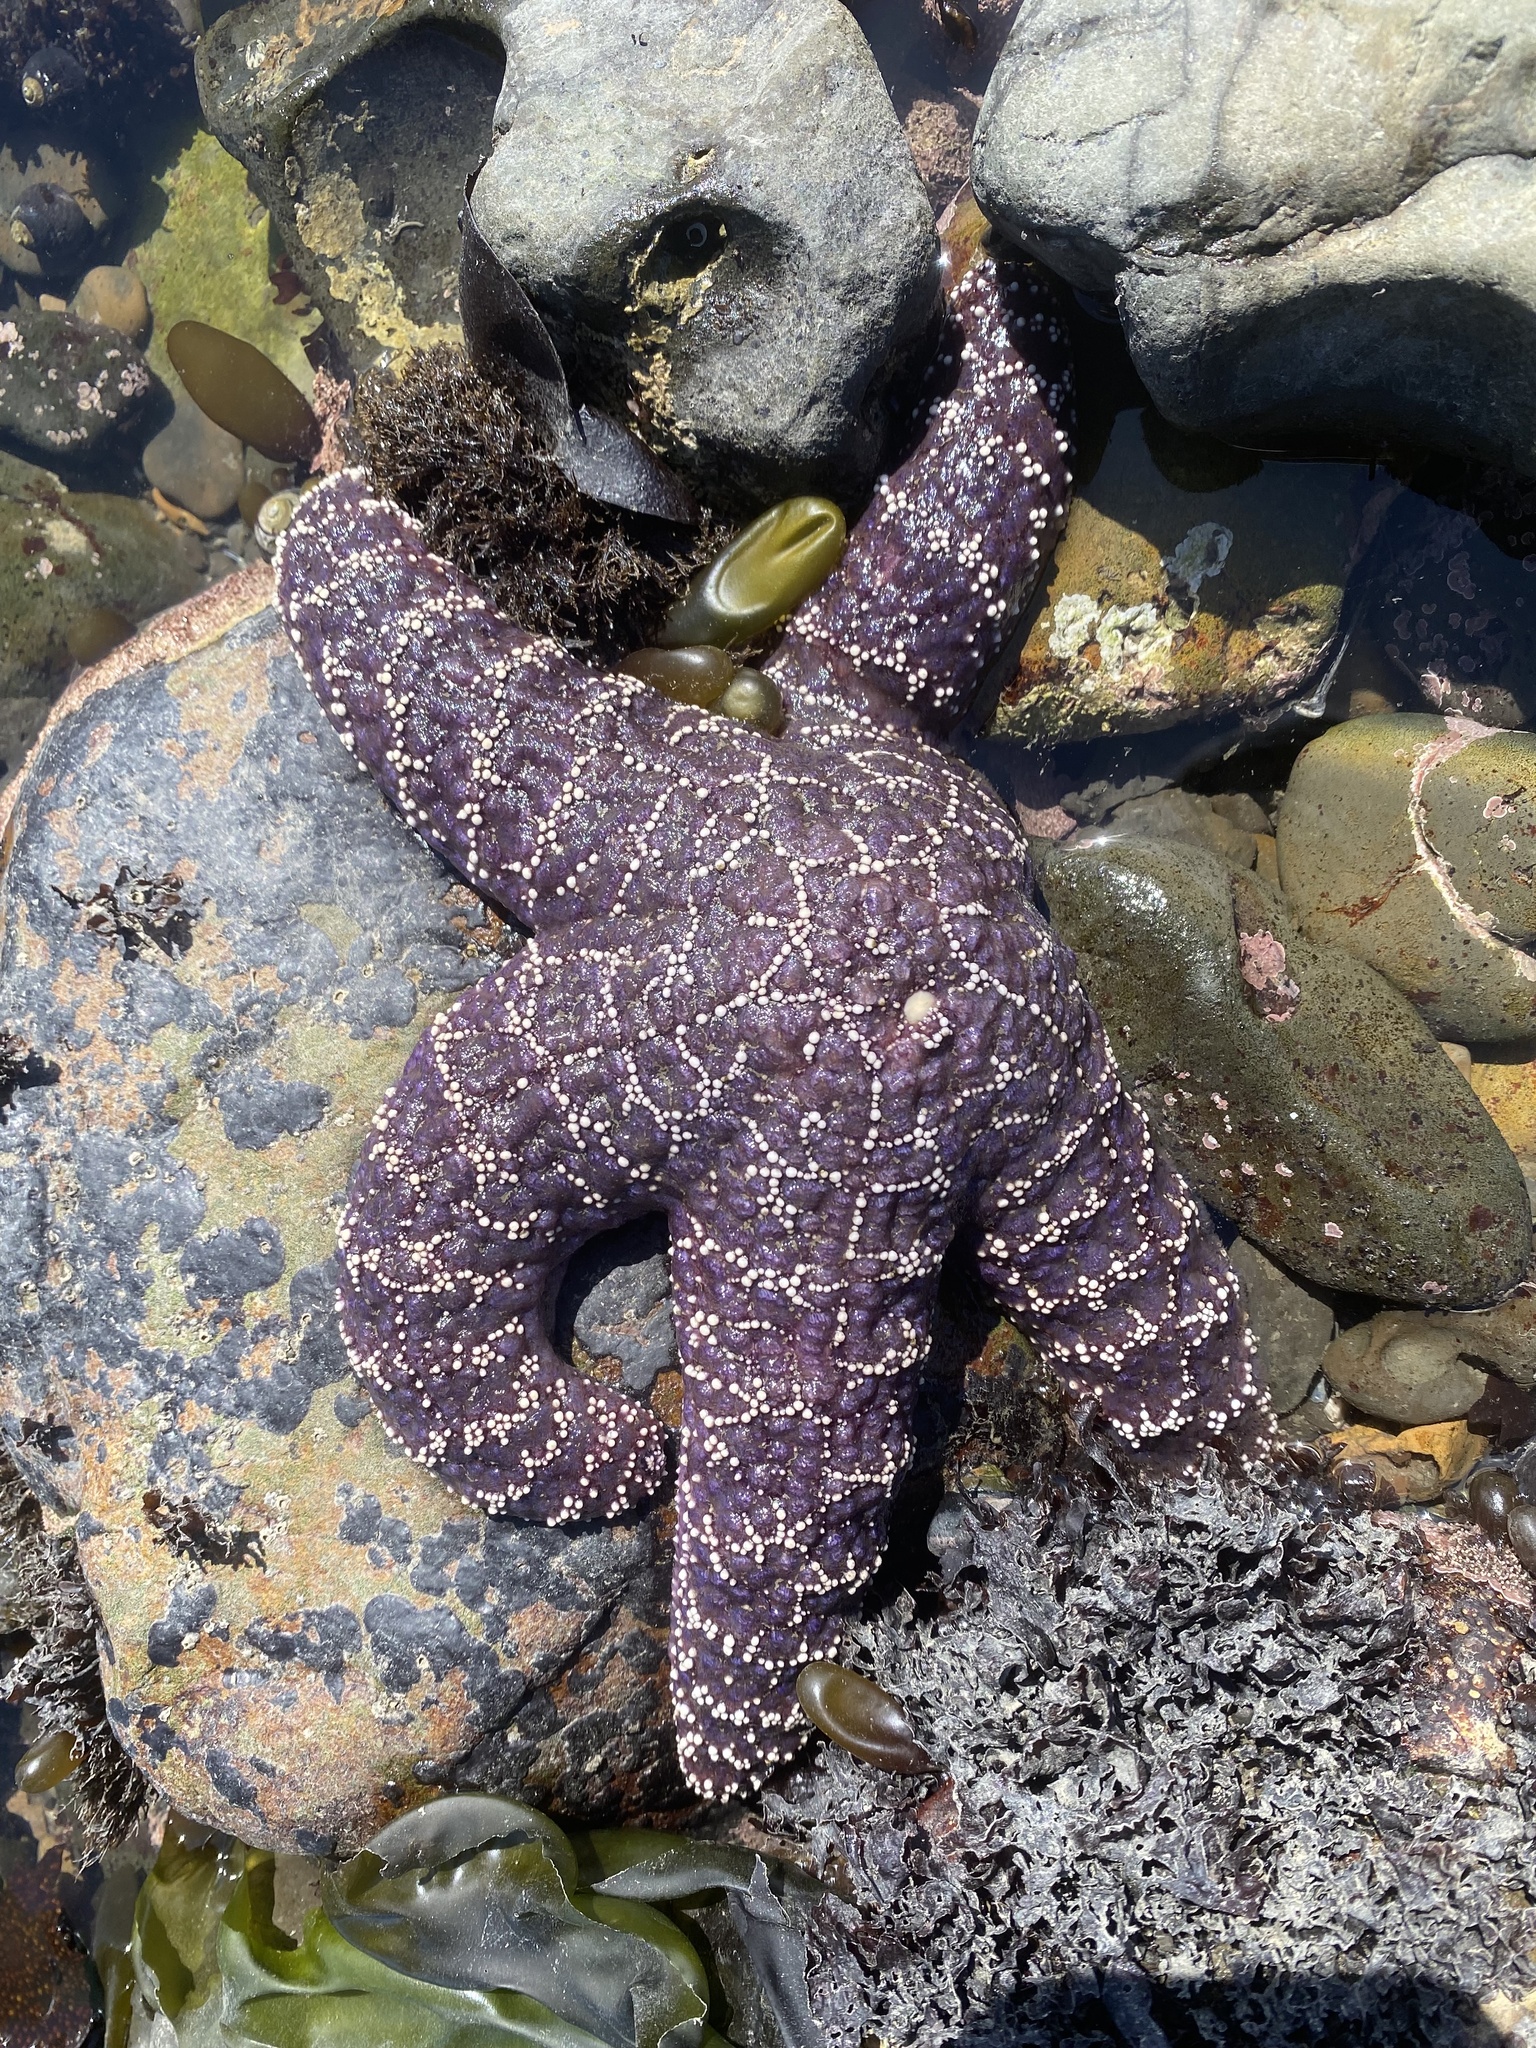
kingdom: Animalia
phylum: Echinodermata
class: Asteroidea
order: Forcipulatida
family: Asteriidae
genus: Pisaster
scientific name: Pisaster ochraceus
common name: Ochre stars
